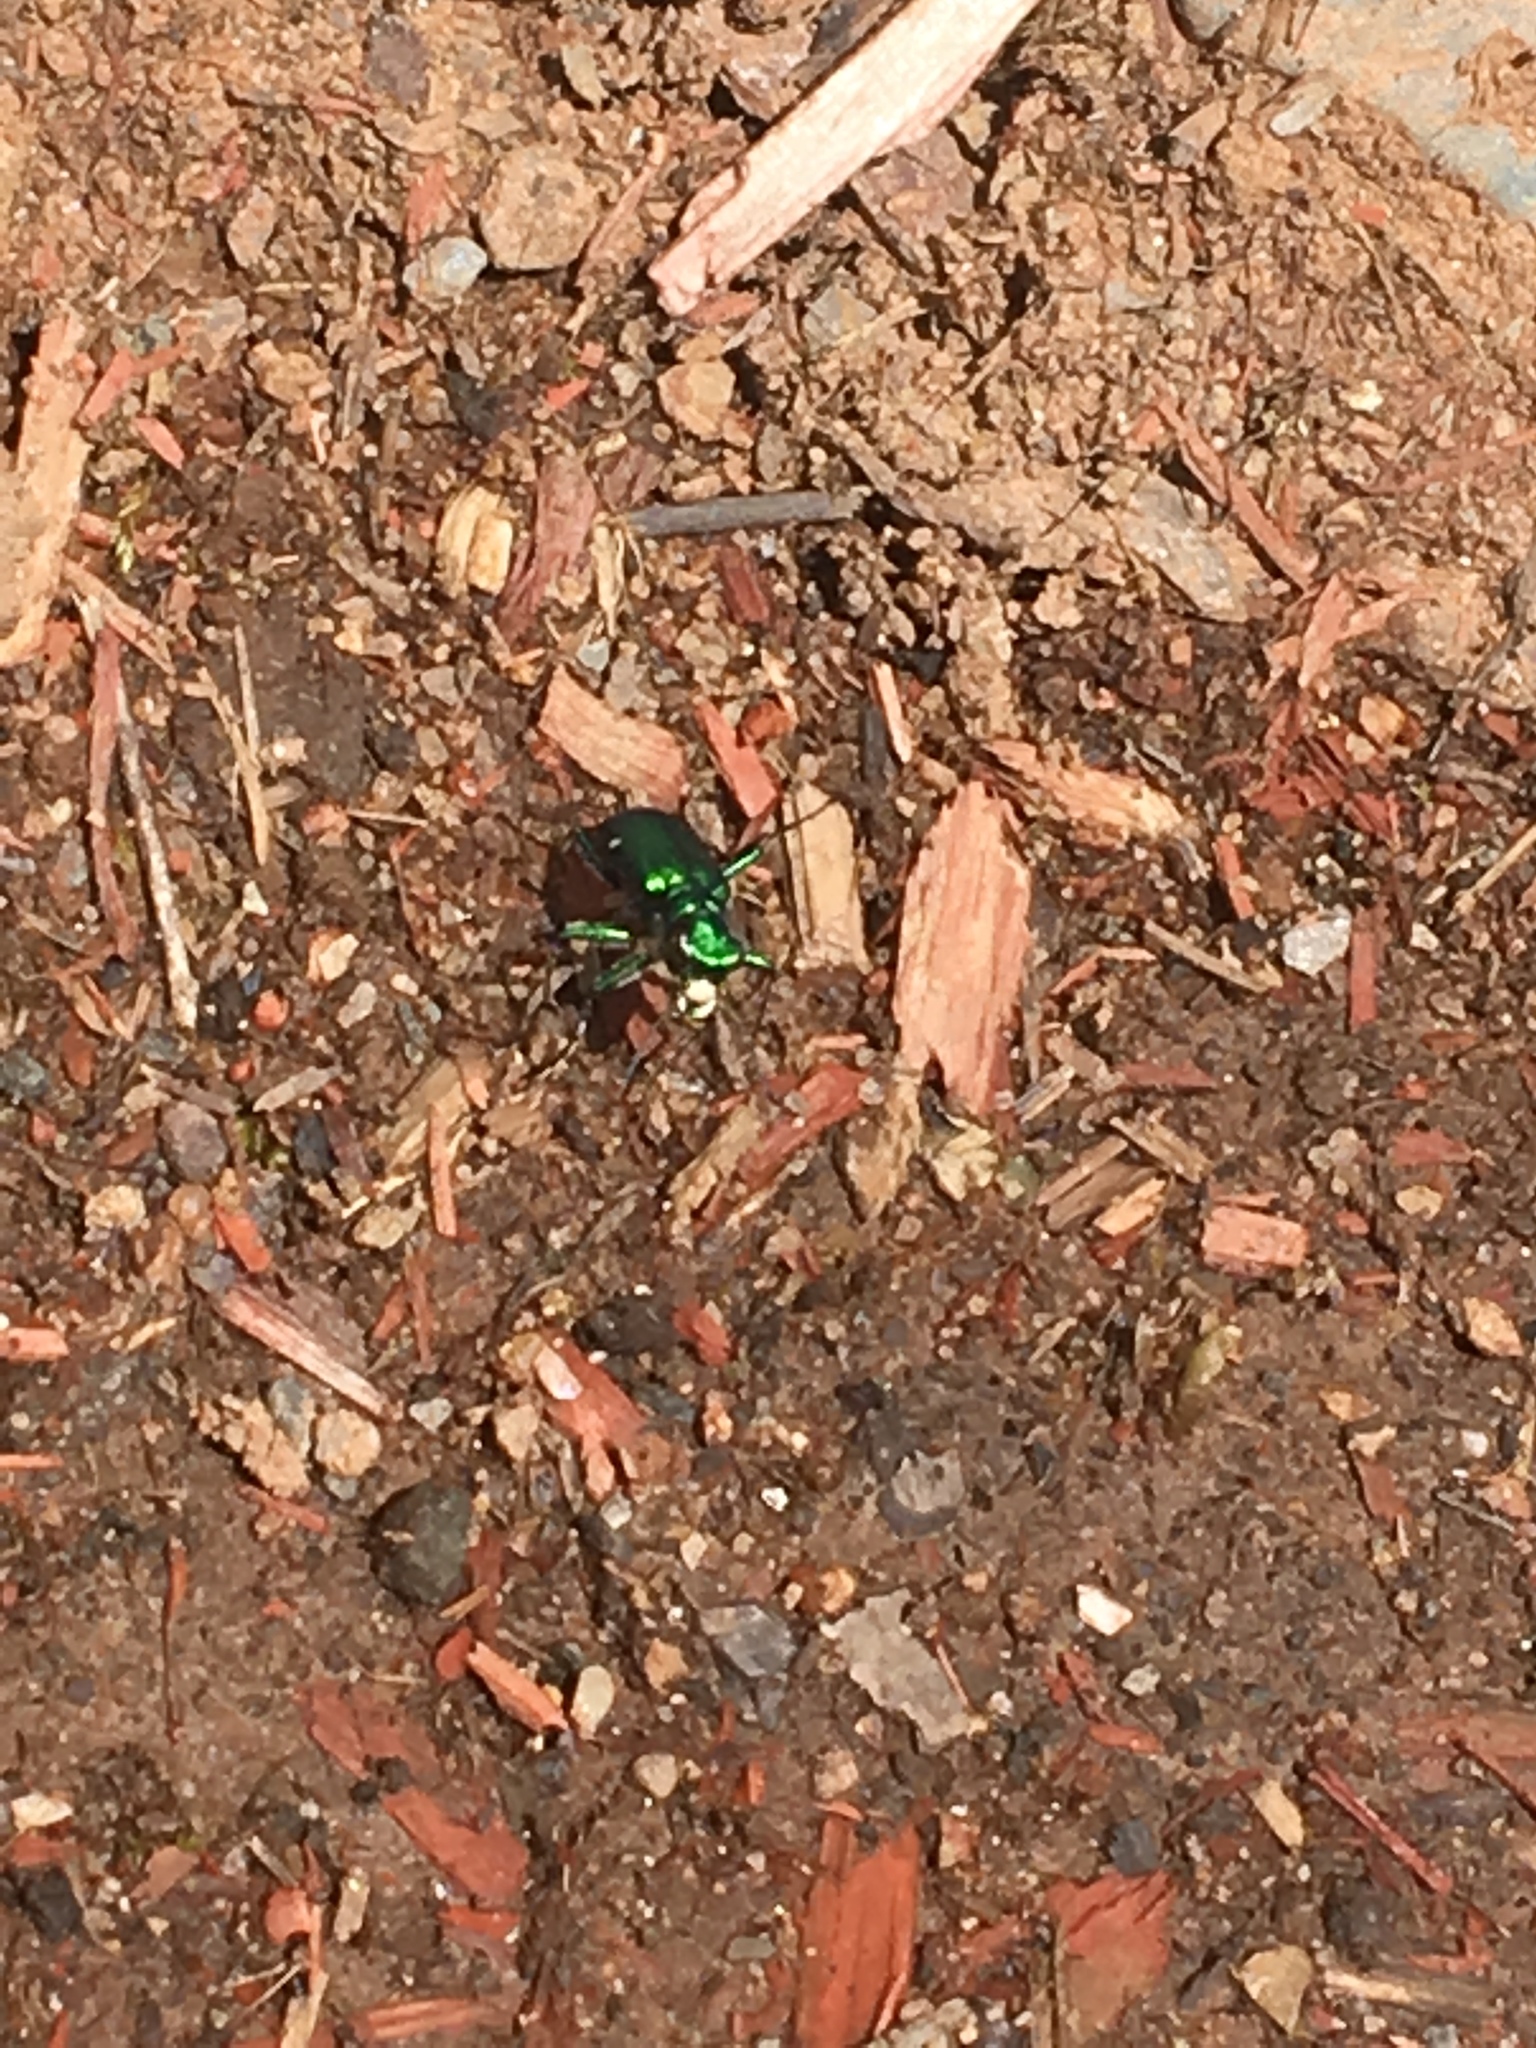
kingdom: Animalia
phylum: Arthropoda
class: Insecta
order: Coleoptera
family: Carabidae
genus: Cicindela
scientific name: Cicindela sexguttata
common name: Six-spotted tiger beetle
